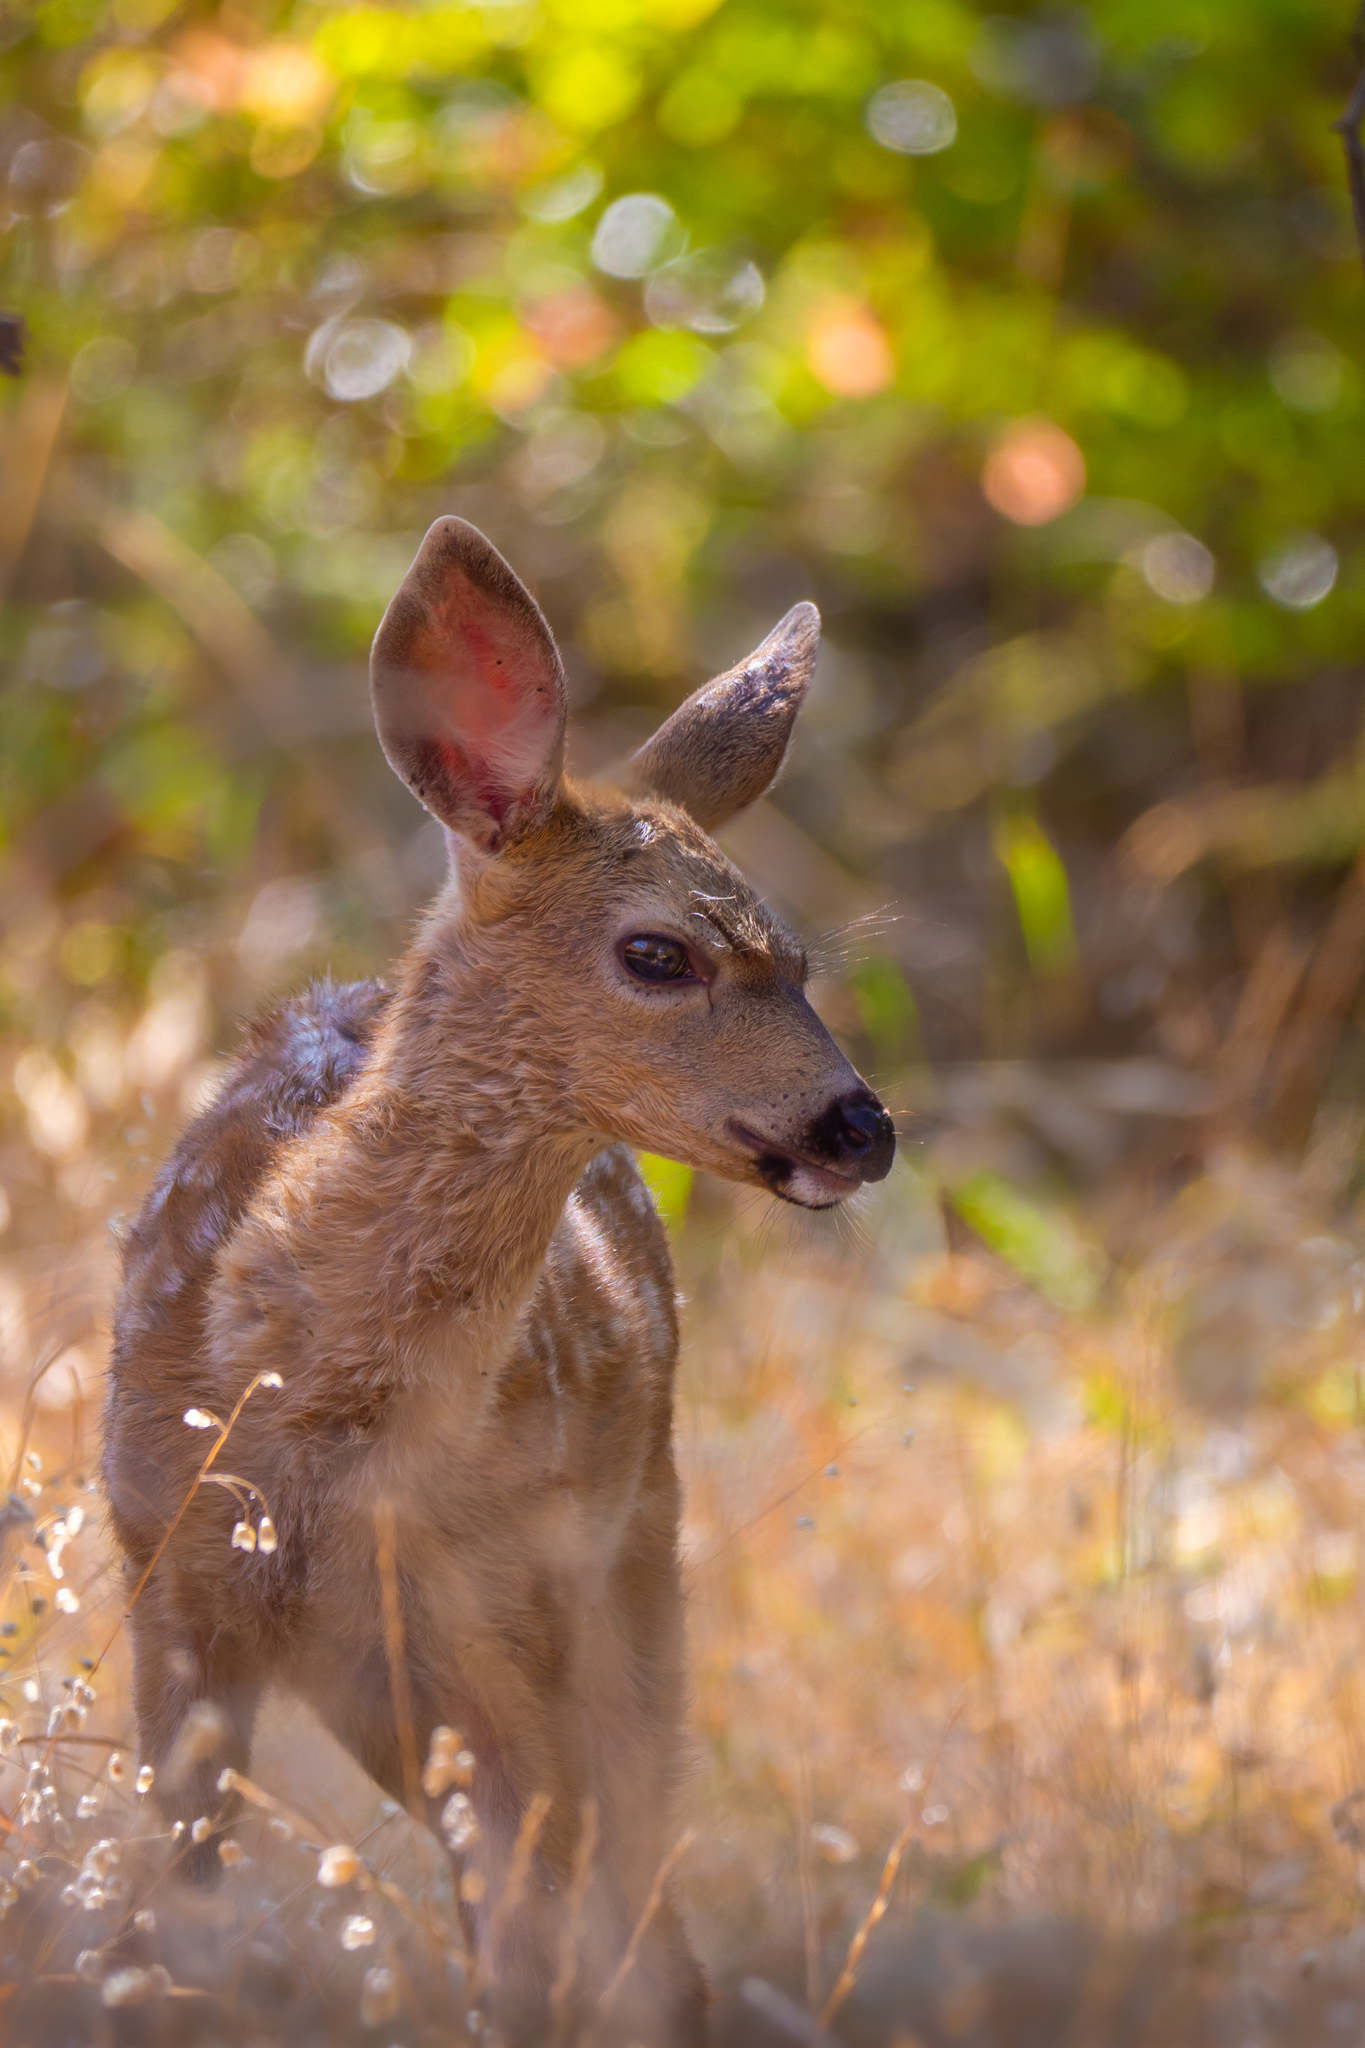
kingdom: Animalia
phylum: Chordata
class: Mammalia
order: Artiodactyla
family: Cervidae
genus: Odocoileus
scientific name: Odocoileus hemionus
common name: Mule deer
